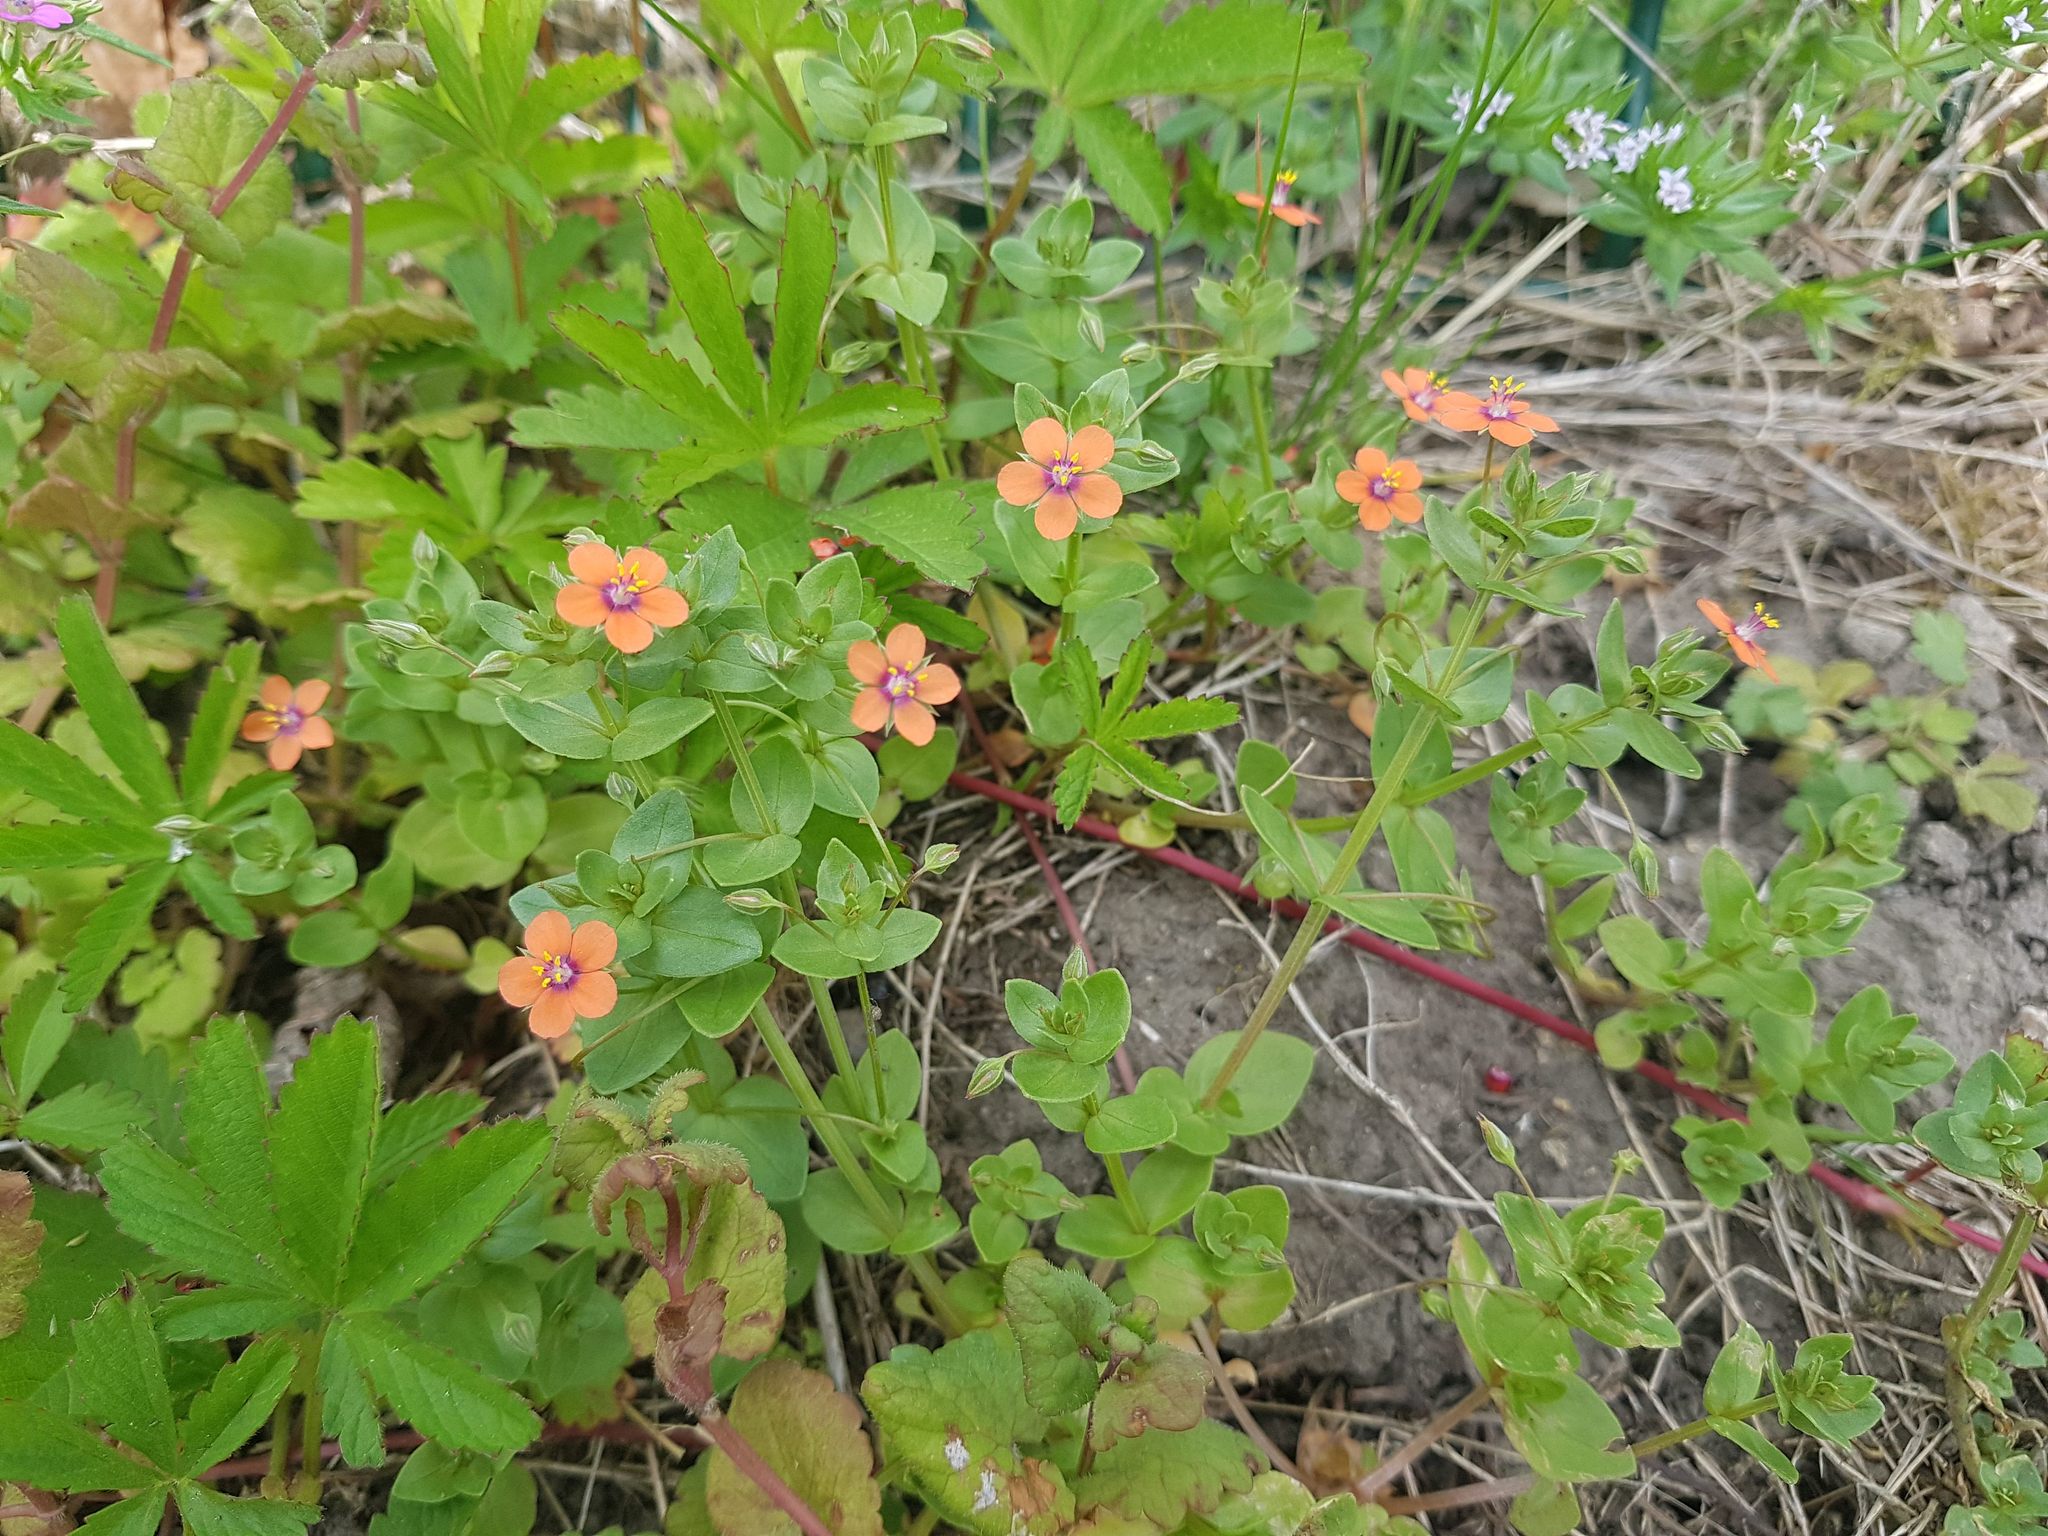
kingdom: Plantae
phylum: Tracheophyta
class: Magnoliopsida
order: Ericales
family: Primulaceae
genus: Lysimachia
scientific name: Lysimachia arvensis
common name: Scarlet pimpernel
